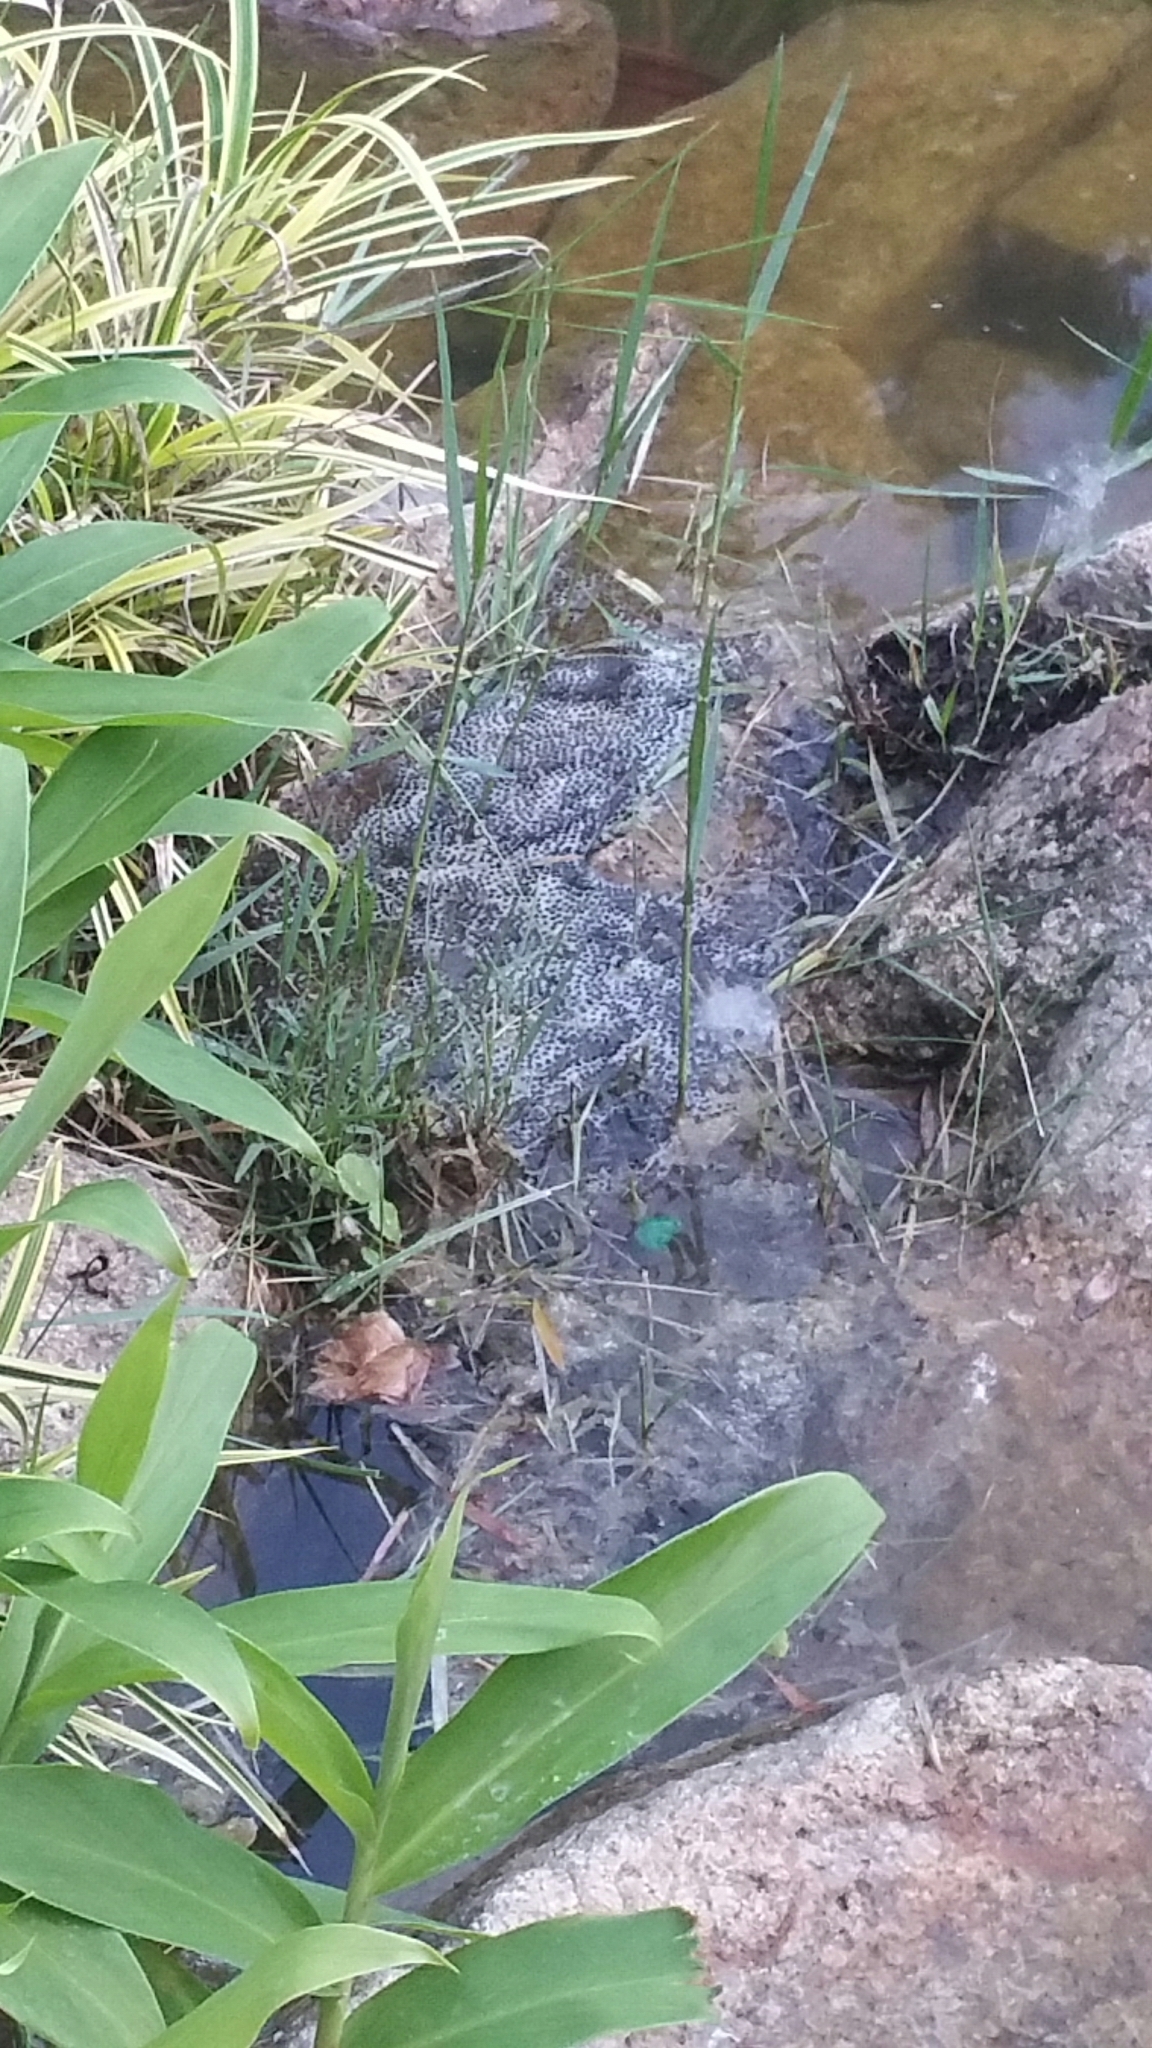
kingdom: Animalia
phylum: Chordata
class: Amphibia
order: Anura
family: Bufonidae
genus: Duttaphrynus
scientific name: Duttaphrynus melanostictus
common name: Common sunda toad
